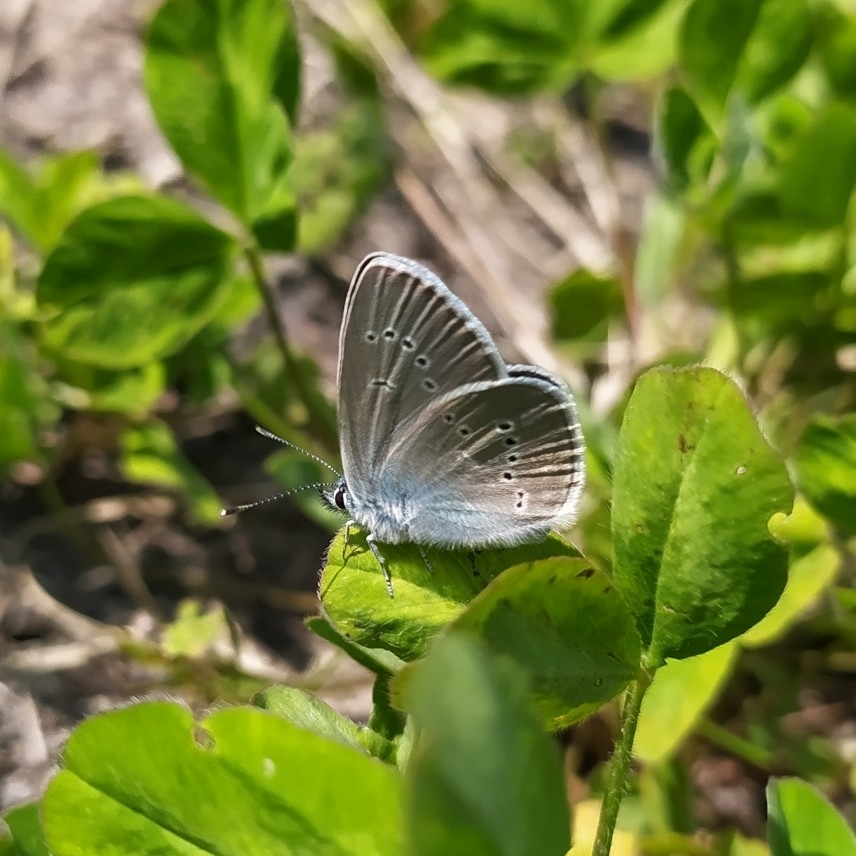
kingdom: Animalia
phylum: Arthropoda
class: Insecta
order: Lepidoptera
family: Lycaenidae
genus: Cyaniris
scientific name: Cyaniris semiargus
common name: Mazarine blue
